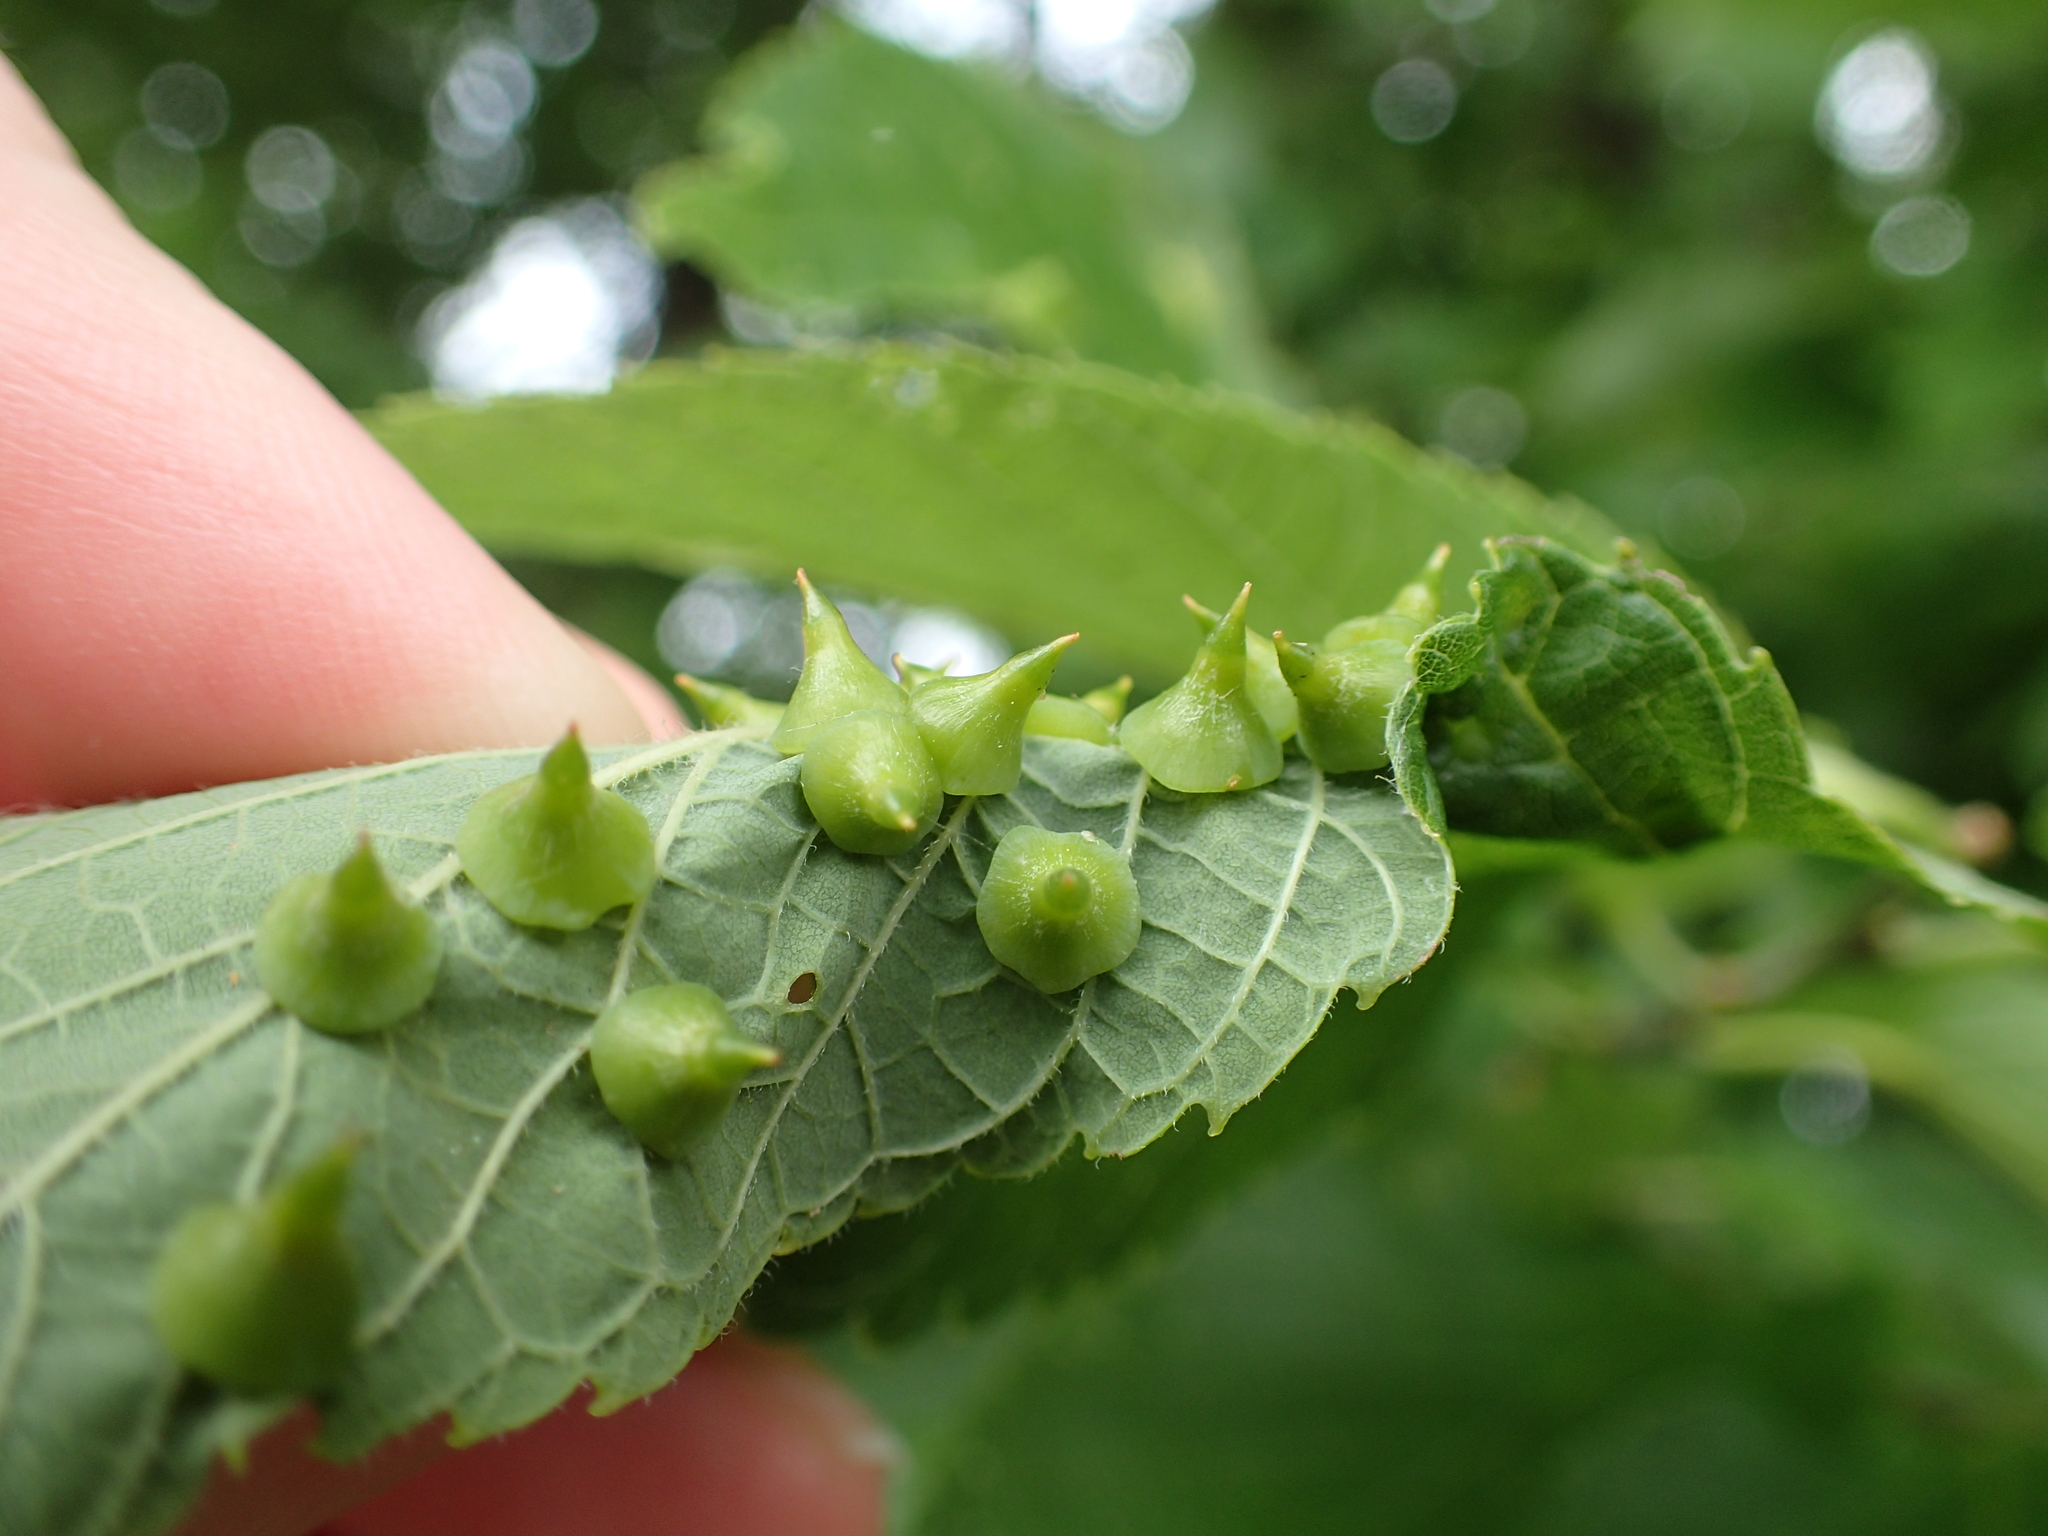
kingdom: Animalia
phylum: Arthropoda
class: Insecta
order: Diptera
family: Cecidomyiidae
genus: Celticecis
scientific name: Celticecis spiniformis
